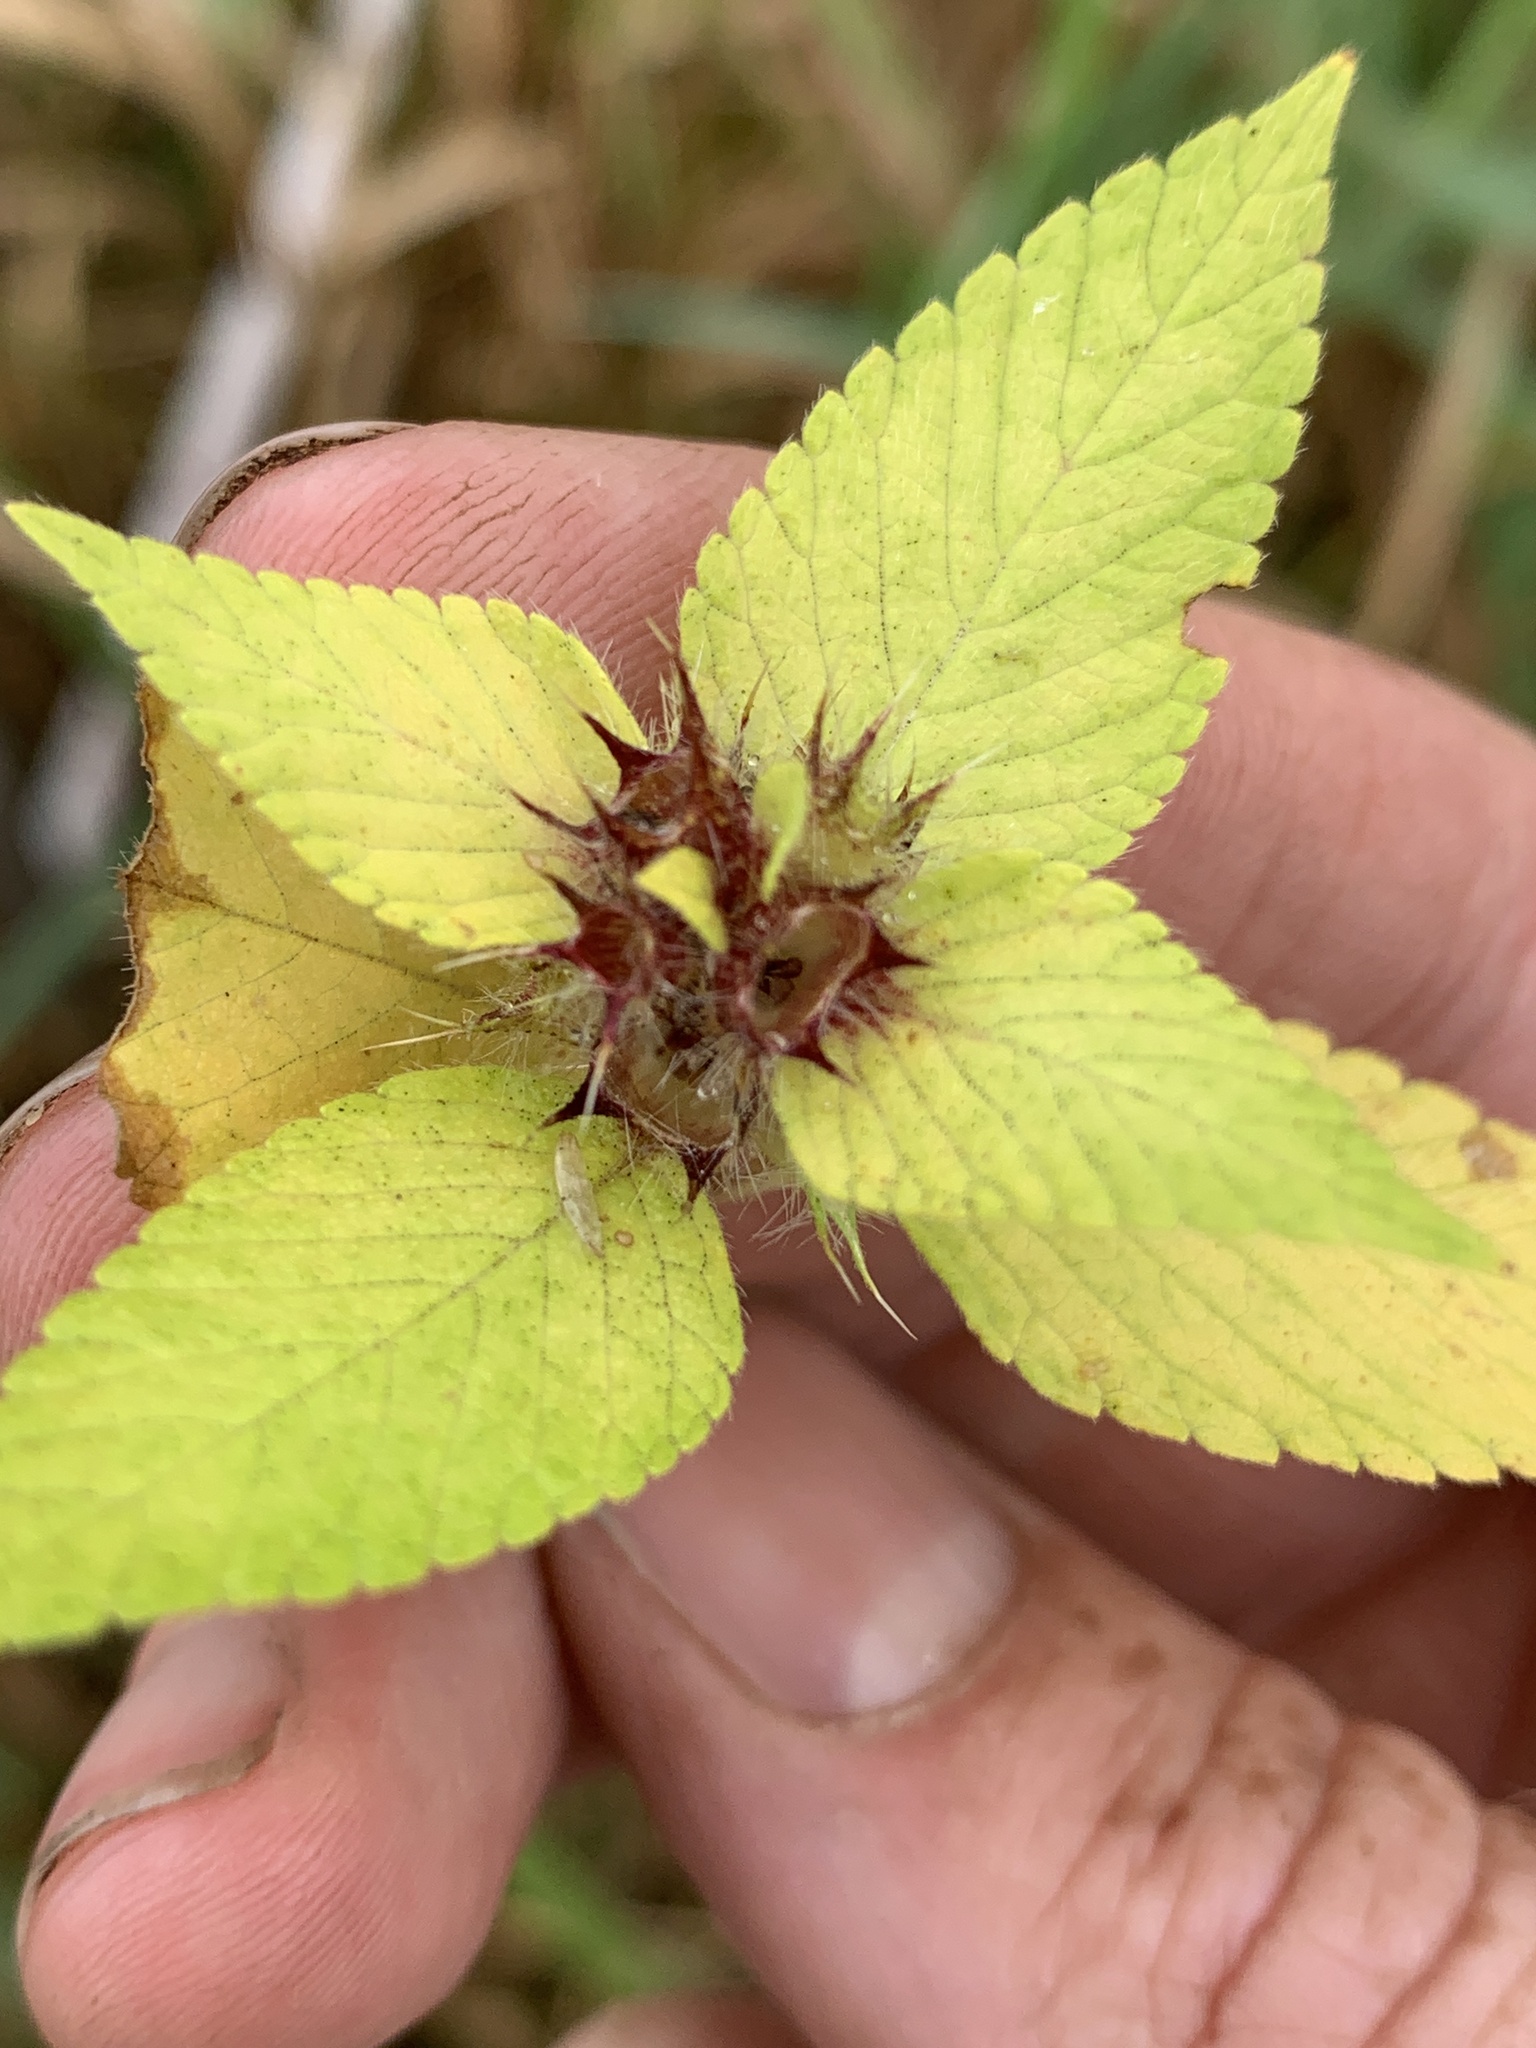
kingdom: Plantae
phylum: Tracheophyta
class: Magnoliopsida
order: Lamiales
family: Lamiaceae
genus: Galeopsis
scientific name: Galeopsis tetrahit
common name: Common hemp-nettle
